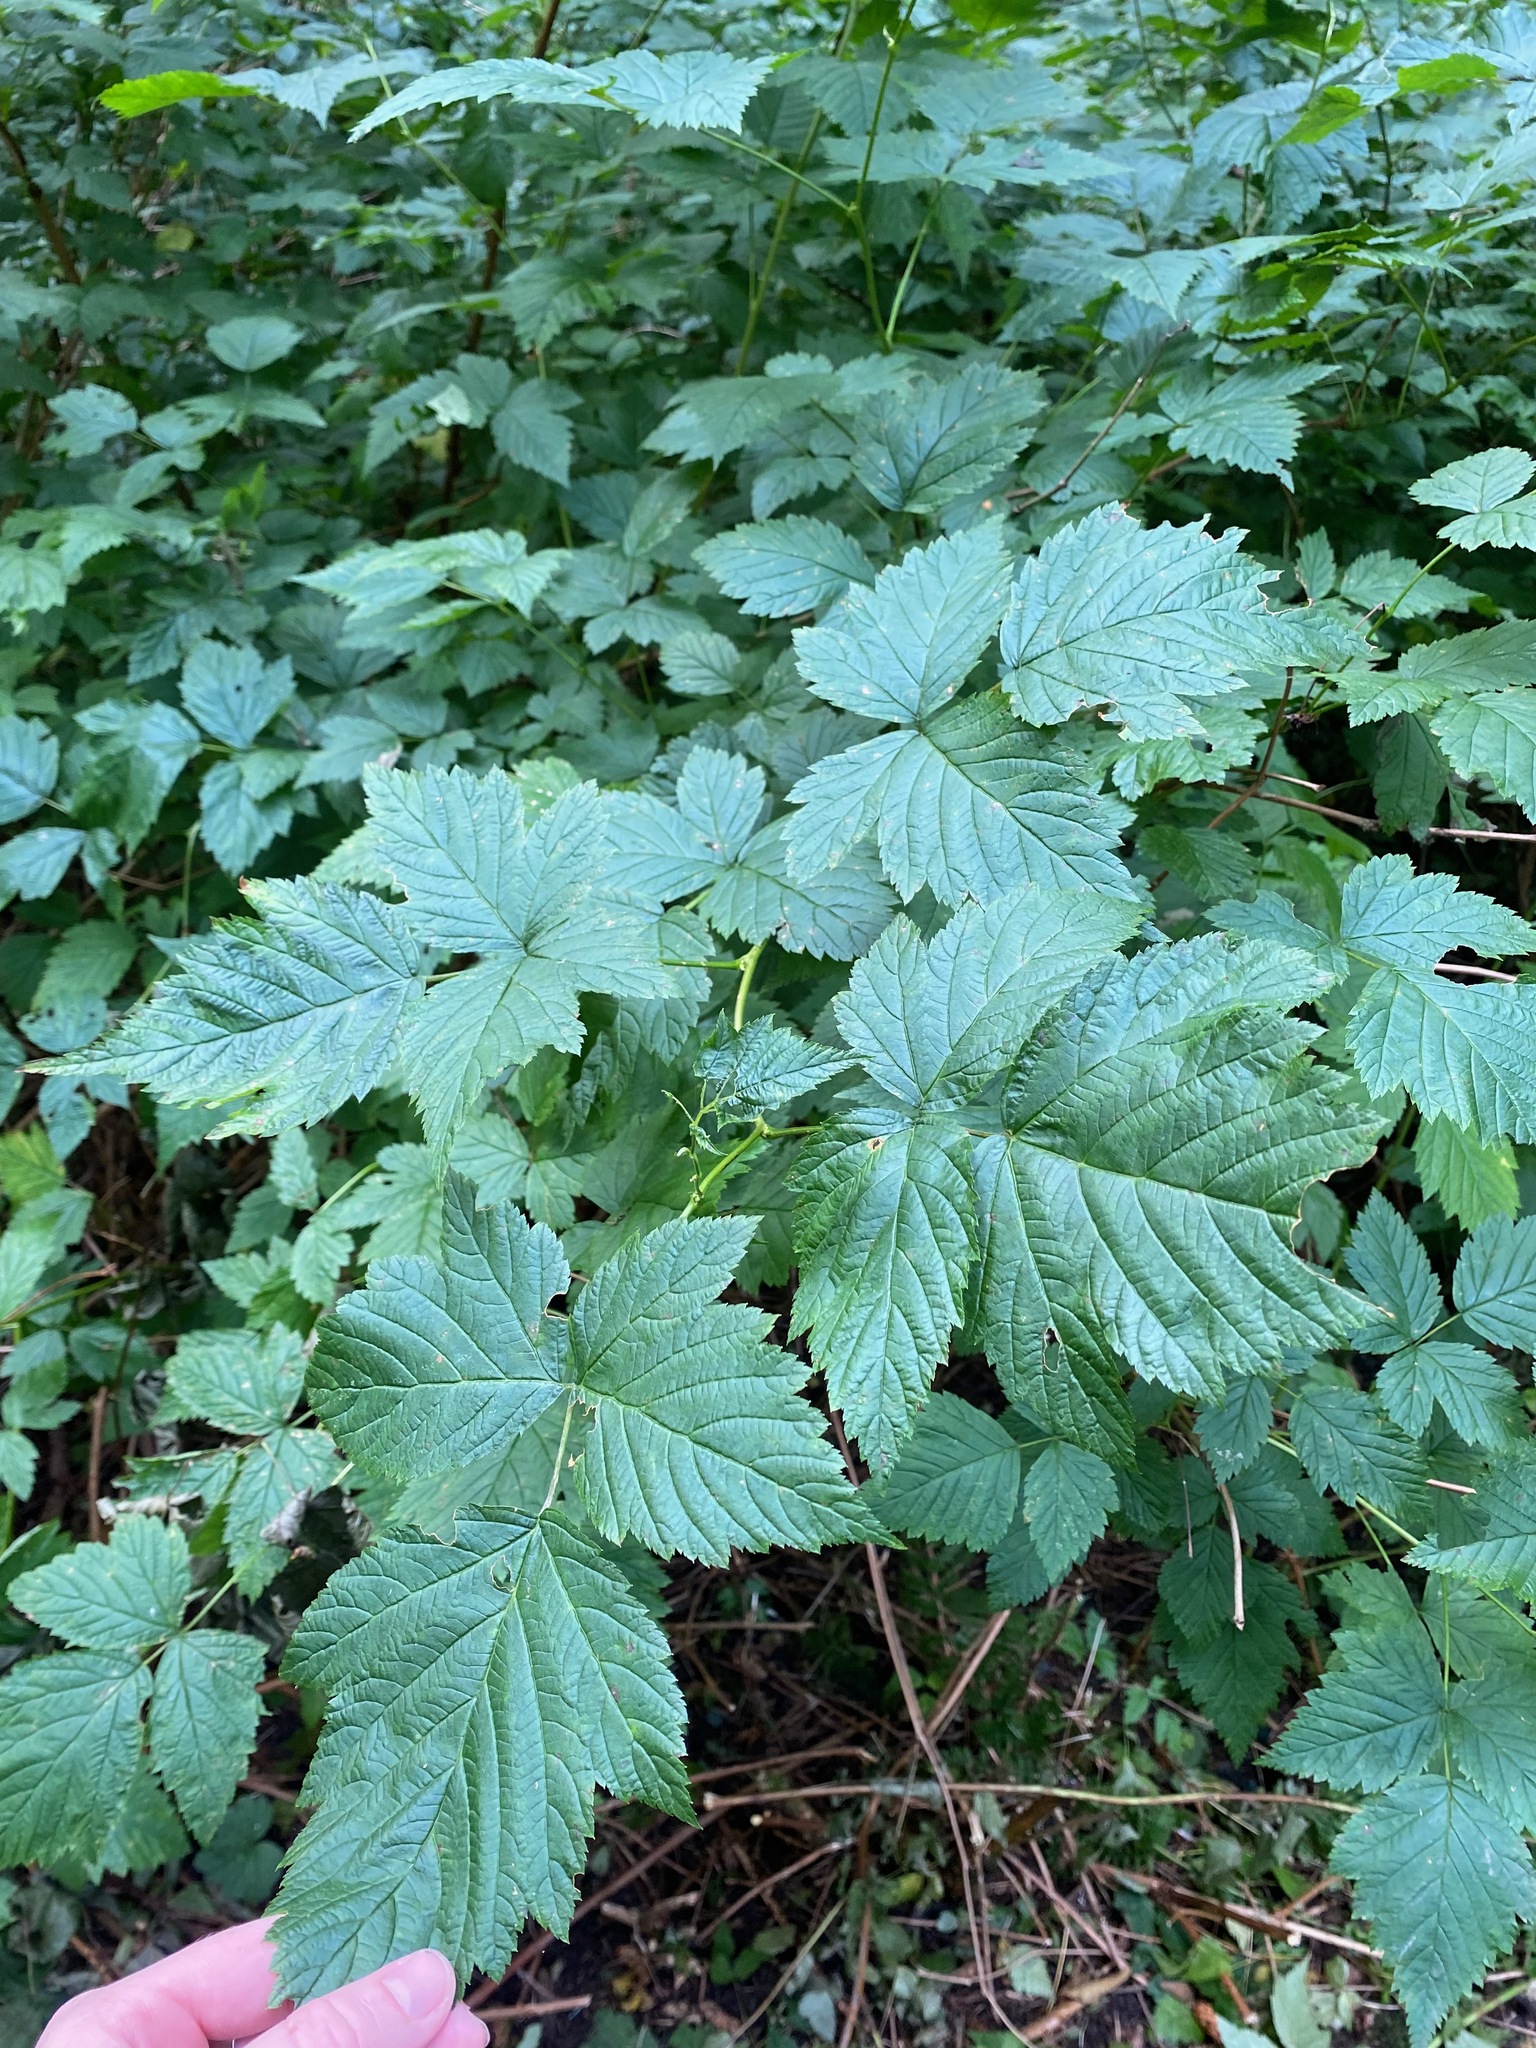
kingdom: Plantae
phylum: Tracheophyta
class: Magnoliopsida
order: Rosales
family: Rosaceae
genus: Rubus
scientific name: Rubus spectabilis
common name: Salmonberry
